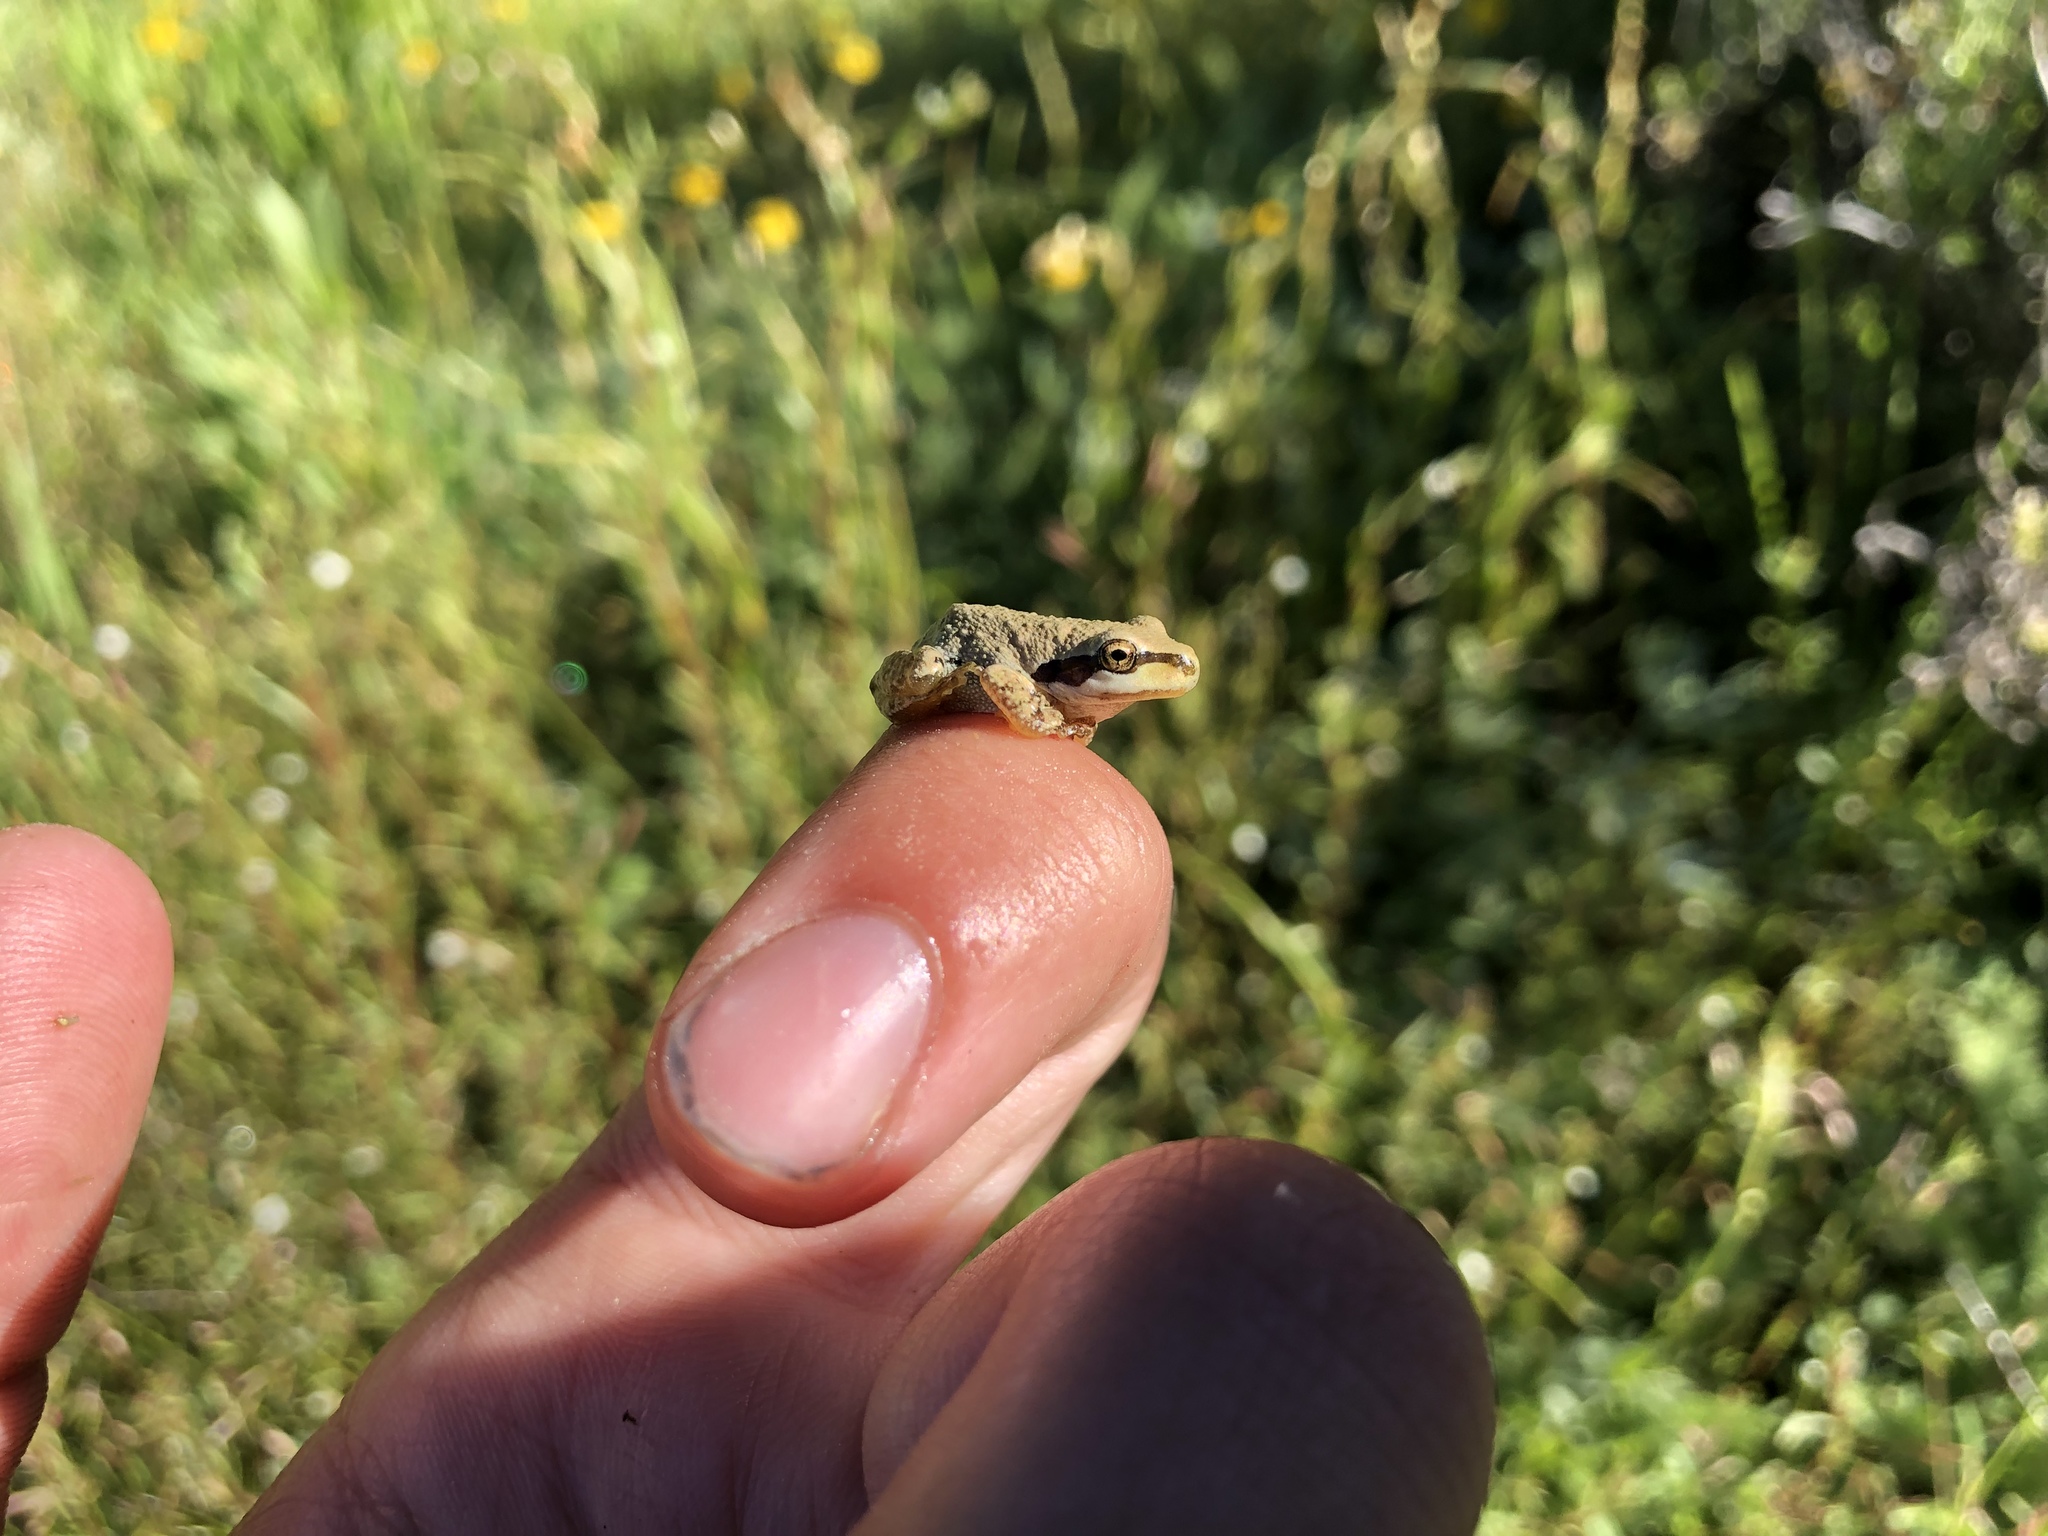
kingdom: Animalia
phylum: Chordata
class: Amphibia
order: Anura
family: Hylidae
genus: Pseudacris
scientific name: Pseudacris regilla
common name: Pacific chorus frog
